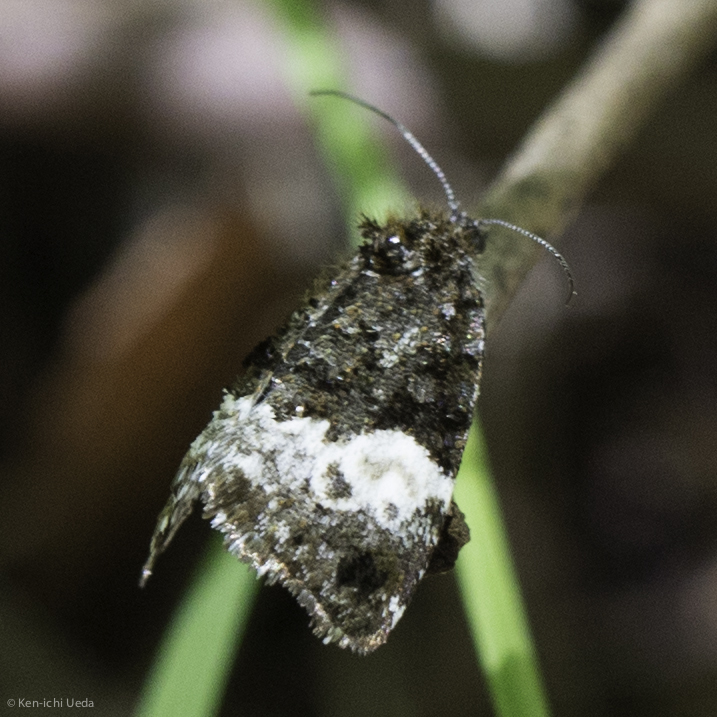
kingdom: Animalia
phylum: Arthropoda
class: Insecta
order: Lepidoptera
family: Noctuidae
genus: Annaphila
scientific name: Annaphila diva
